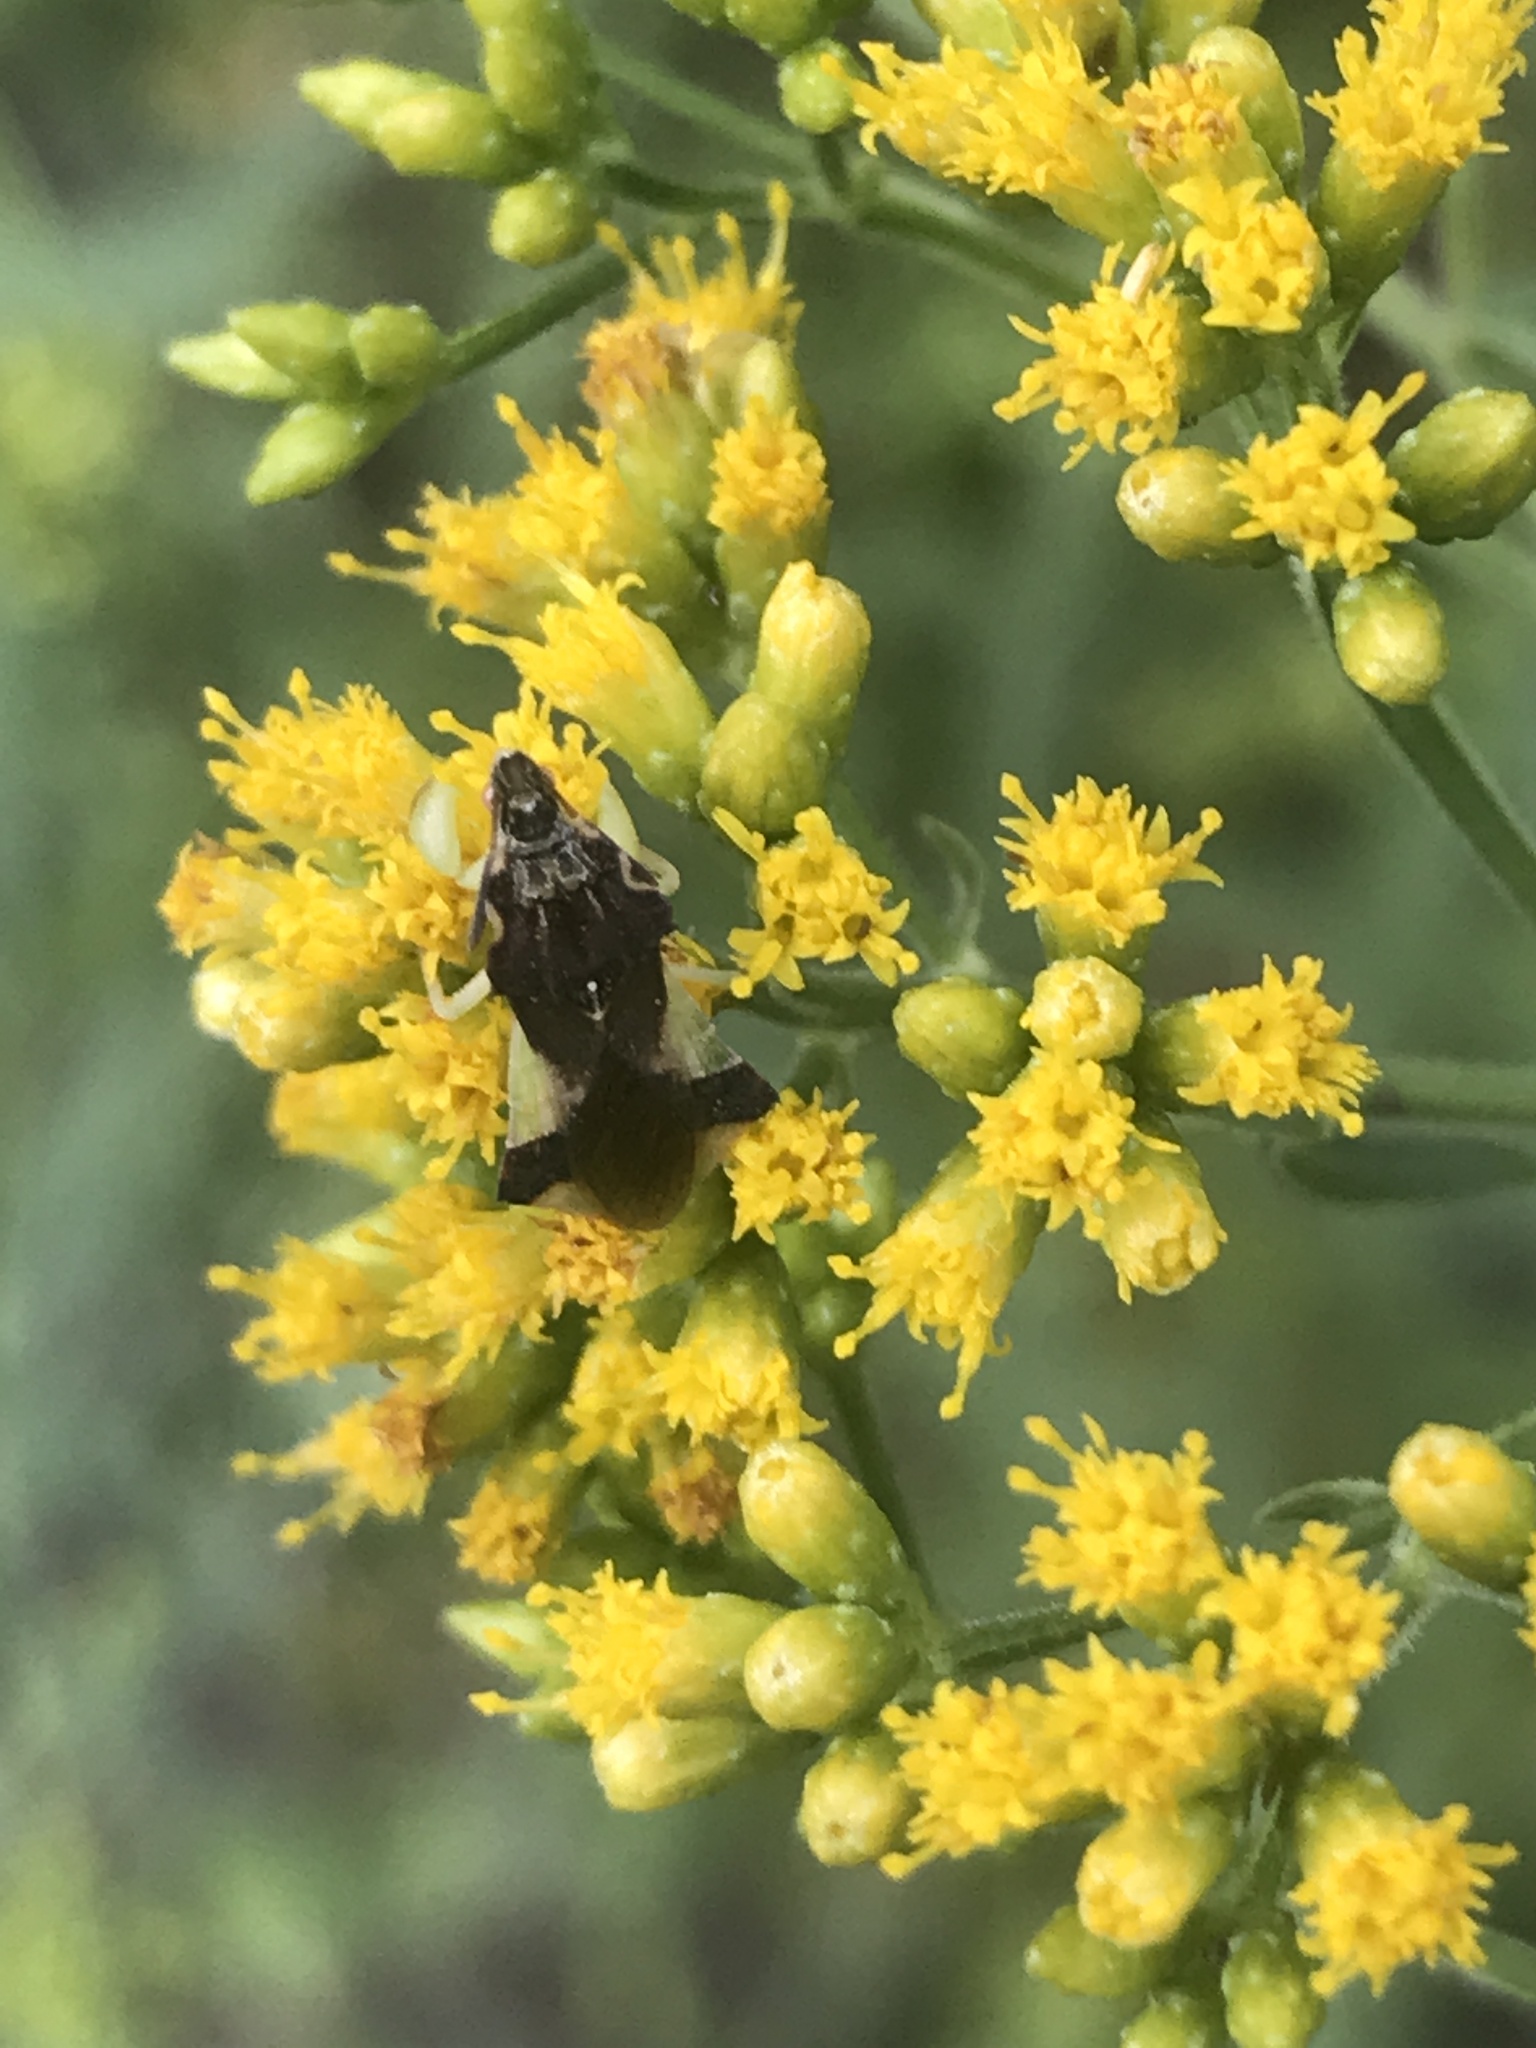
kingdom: Animalia
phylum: Arthropoda
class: Insecta
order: Hemiptera
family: Reduviidae
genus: Phymata
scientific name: Phymata pennsylvanica
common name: Pennsylvania ambush bug
